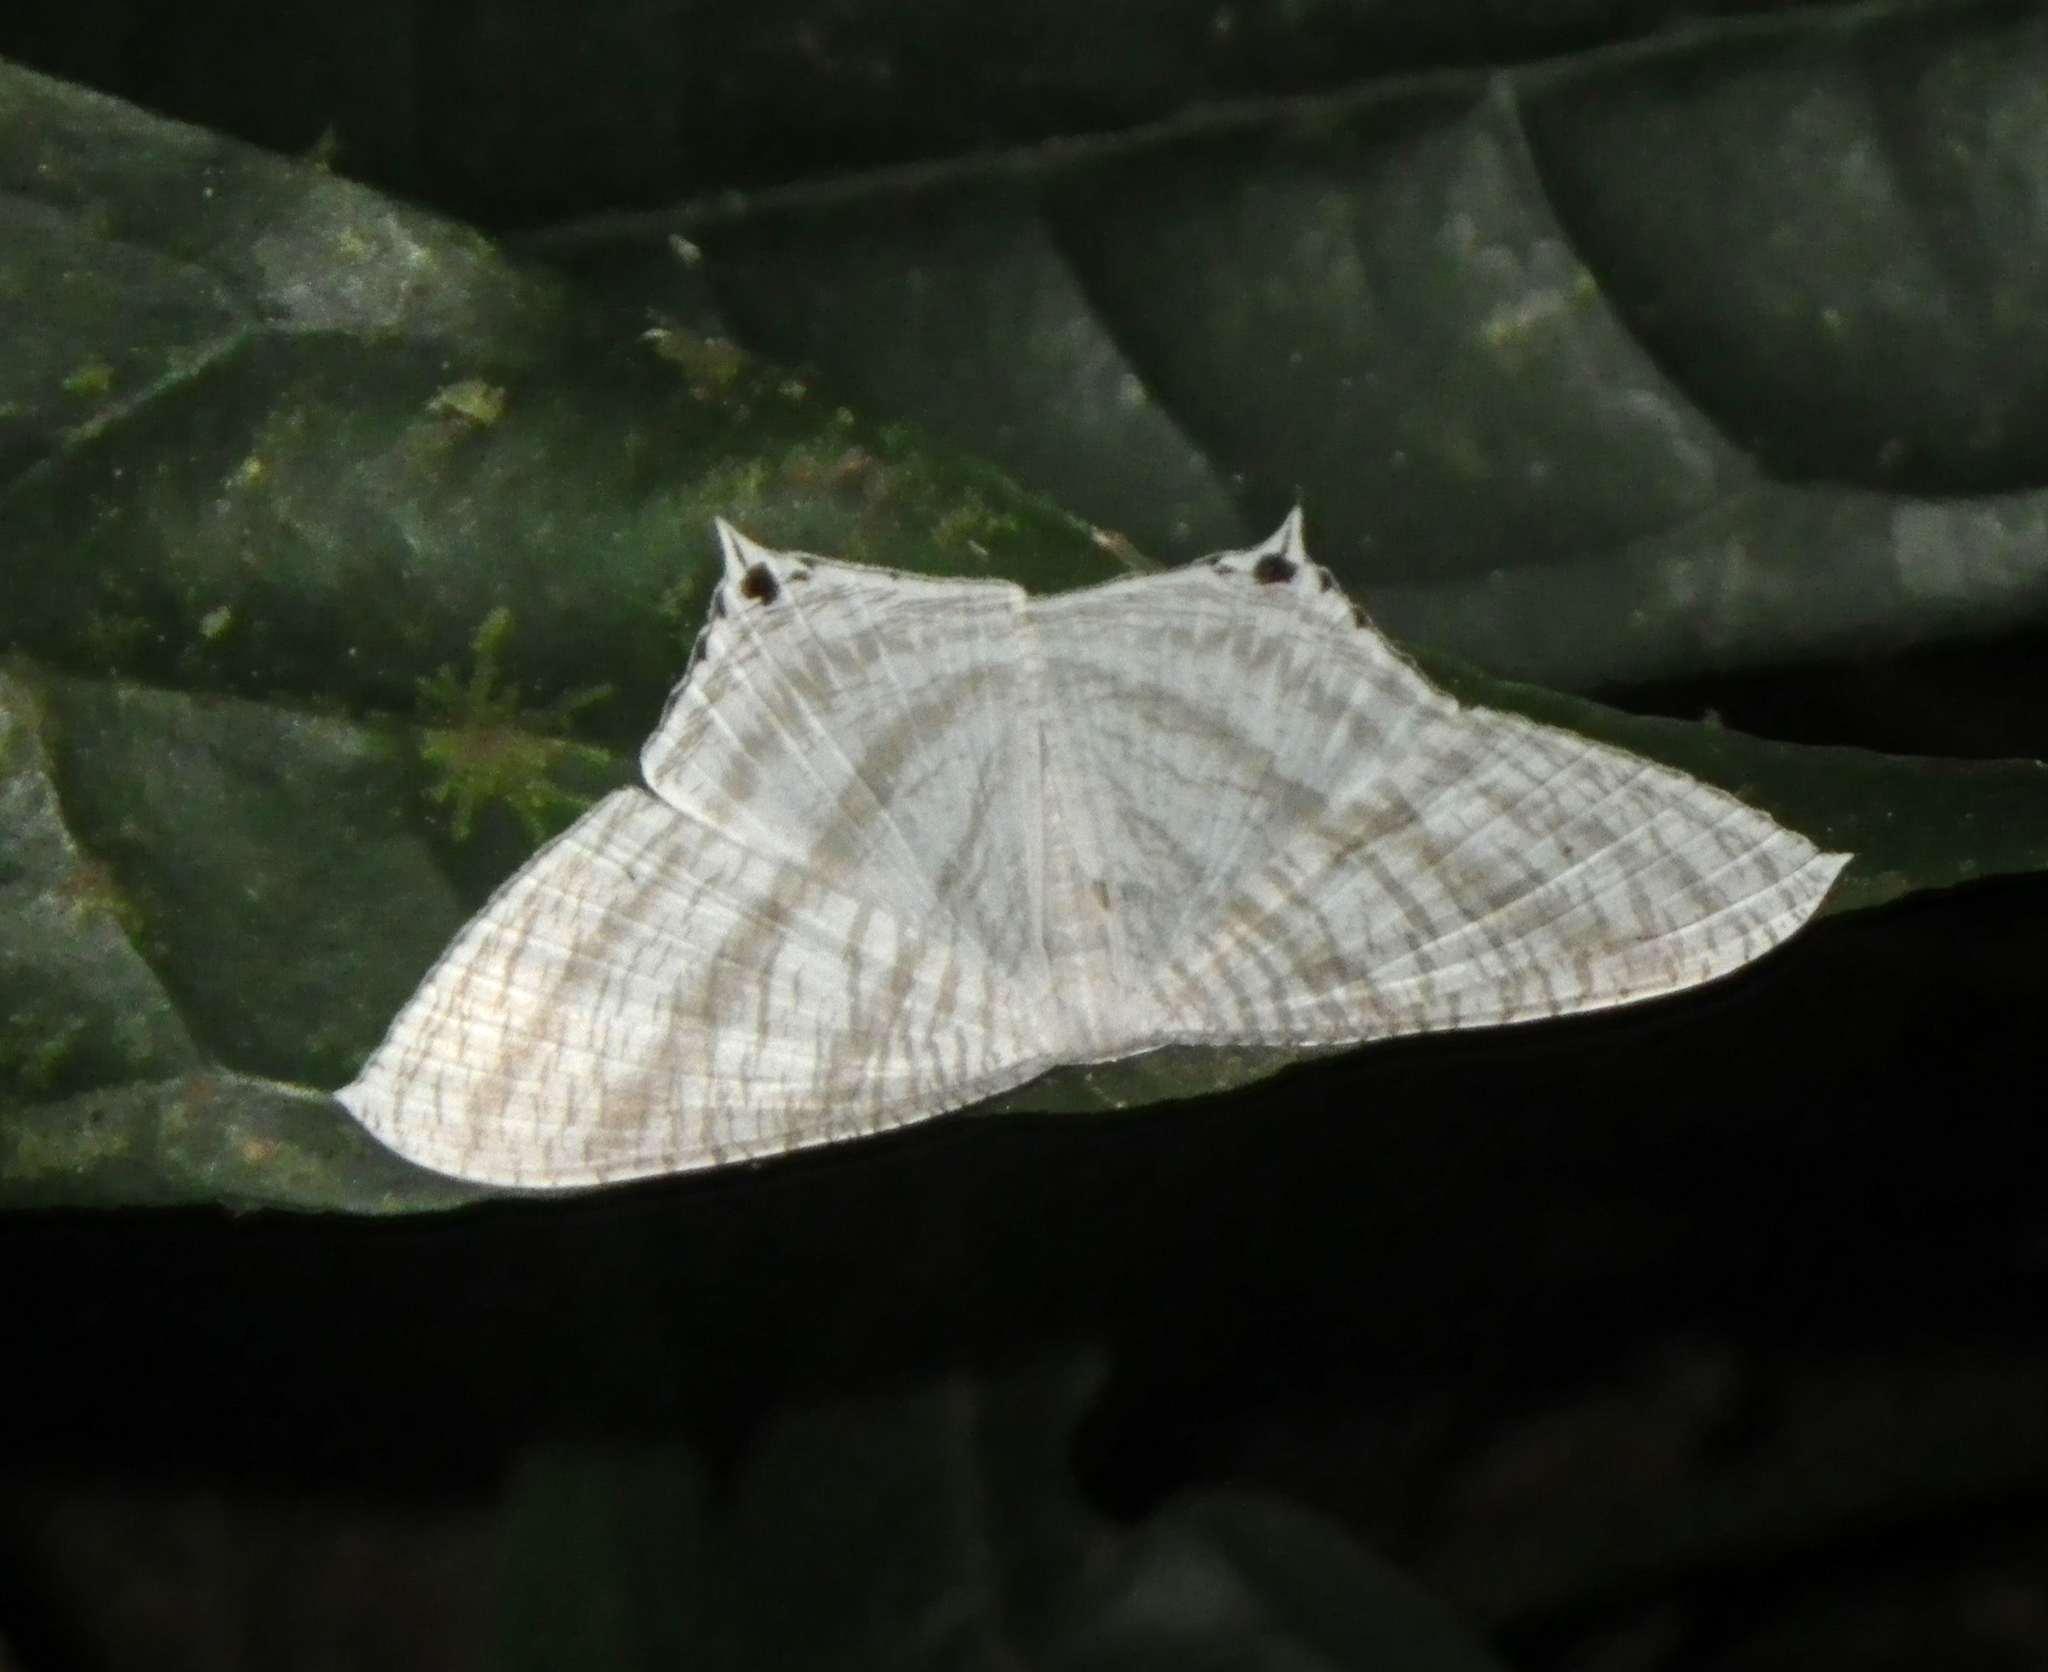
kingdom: Animalia
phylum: Arthropoda
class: Insecta
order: Lepidoptera
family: Uraniidae
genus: Micronia
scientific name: Micronia aculeata
